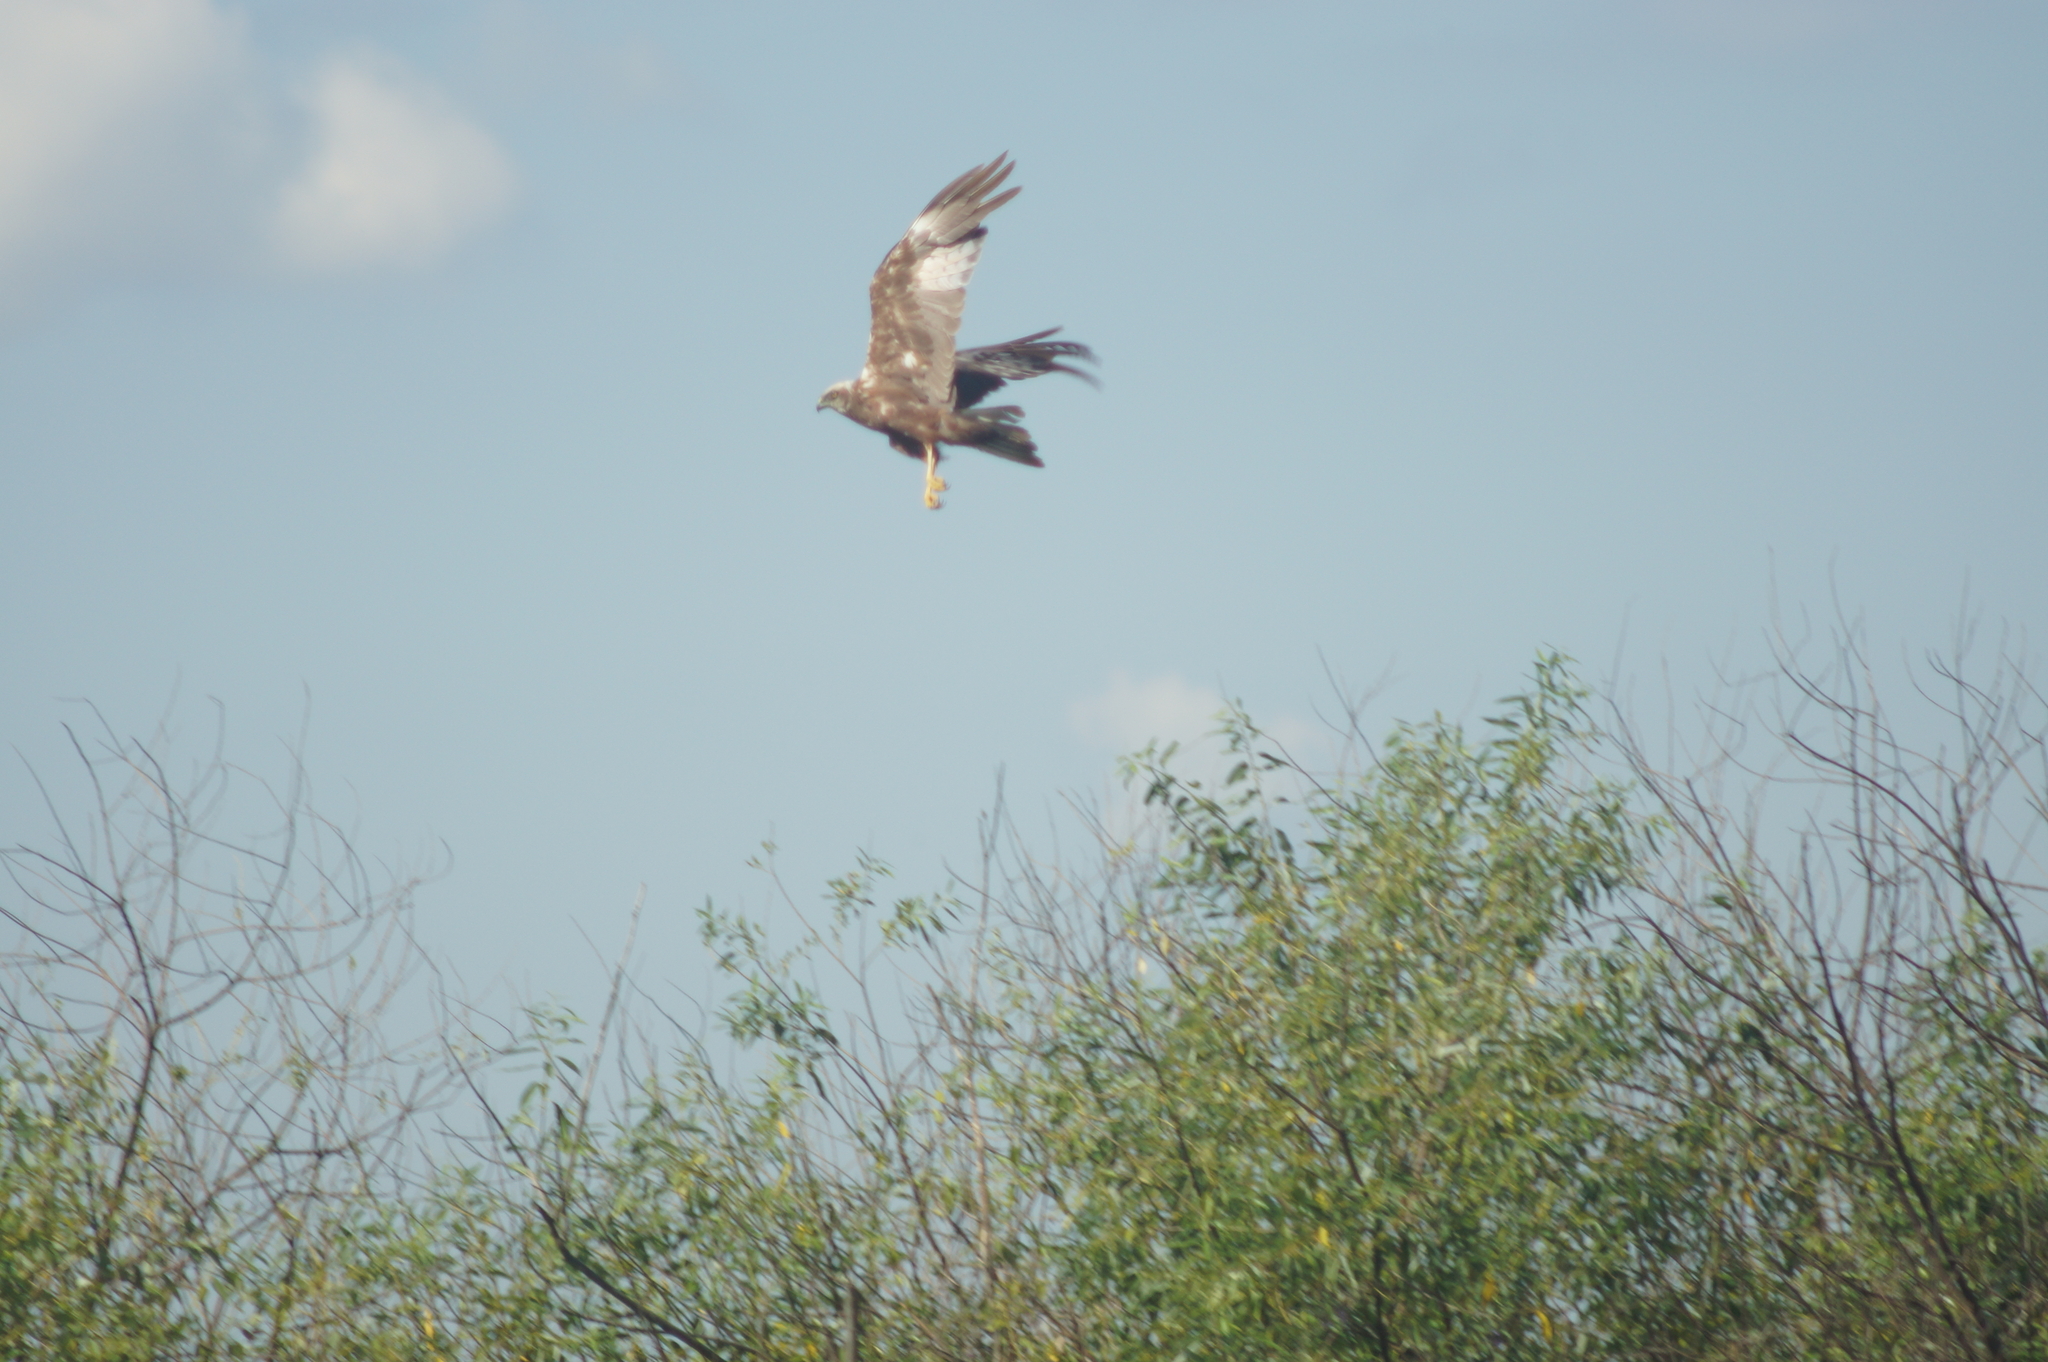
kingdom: Animalia
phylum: Chordata
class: Aves
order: Accipitriformes
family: Accipitridae
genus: Circus
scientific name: Circus aeruginosus
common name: Western marsh harrier
